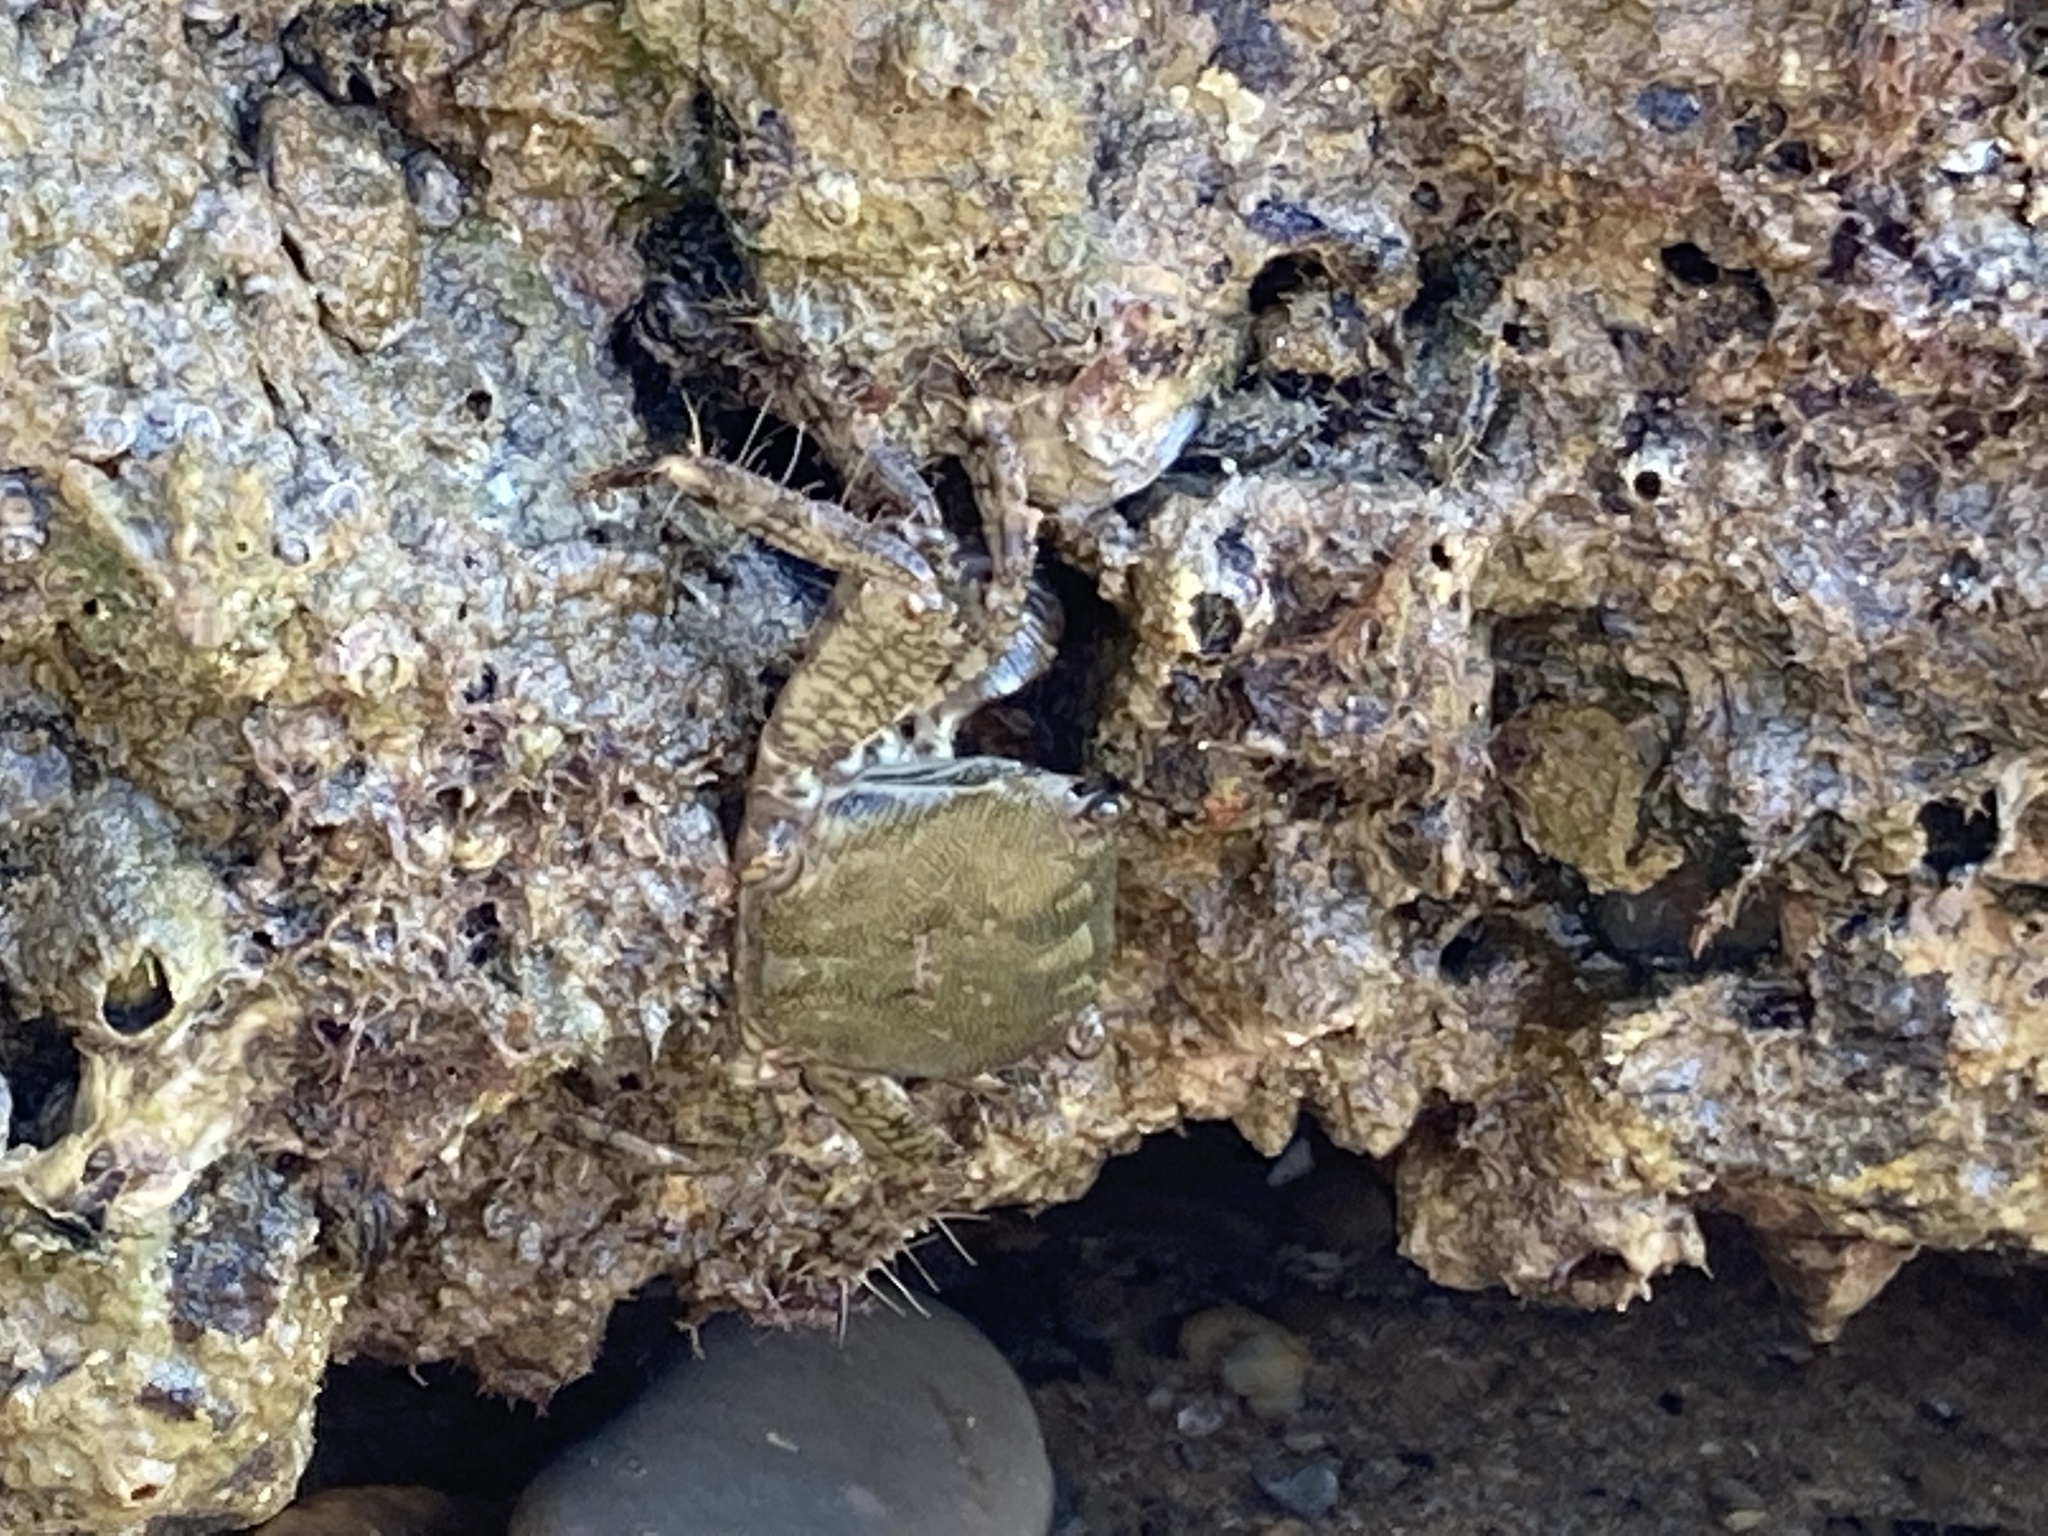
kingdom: Animalia
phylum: Arthropoda
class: Malacostraca
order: Decapoda
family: Grapsidae
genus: Pachygrapsus
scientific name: Pachygrapsus marmoratus
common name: Marbled rock crab
